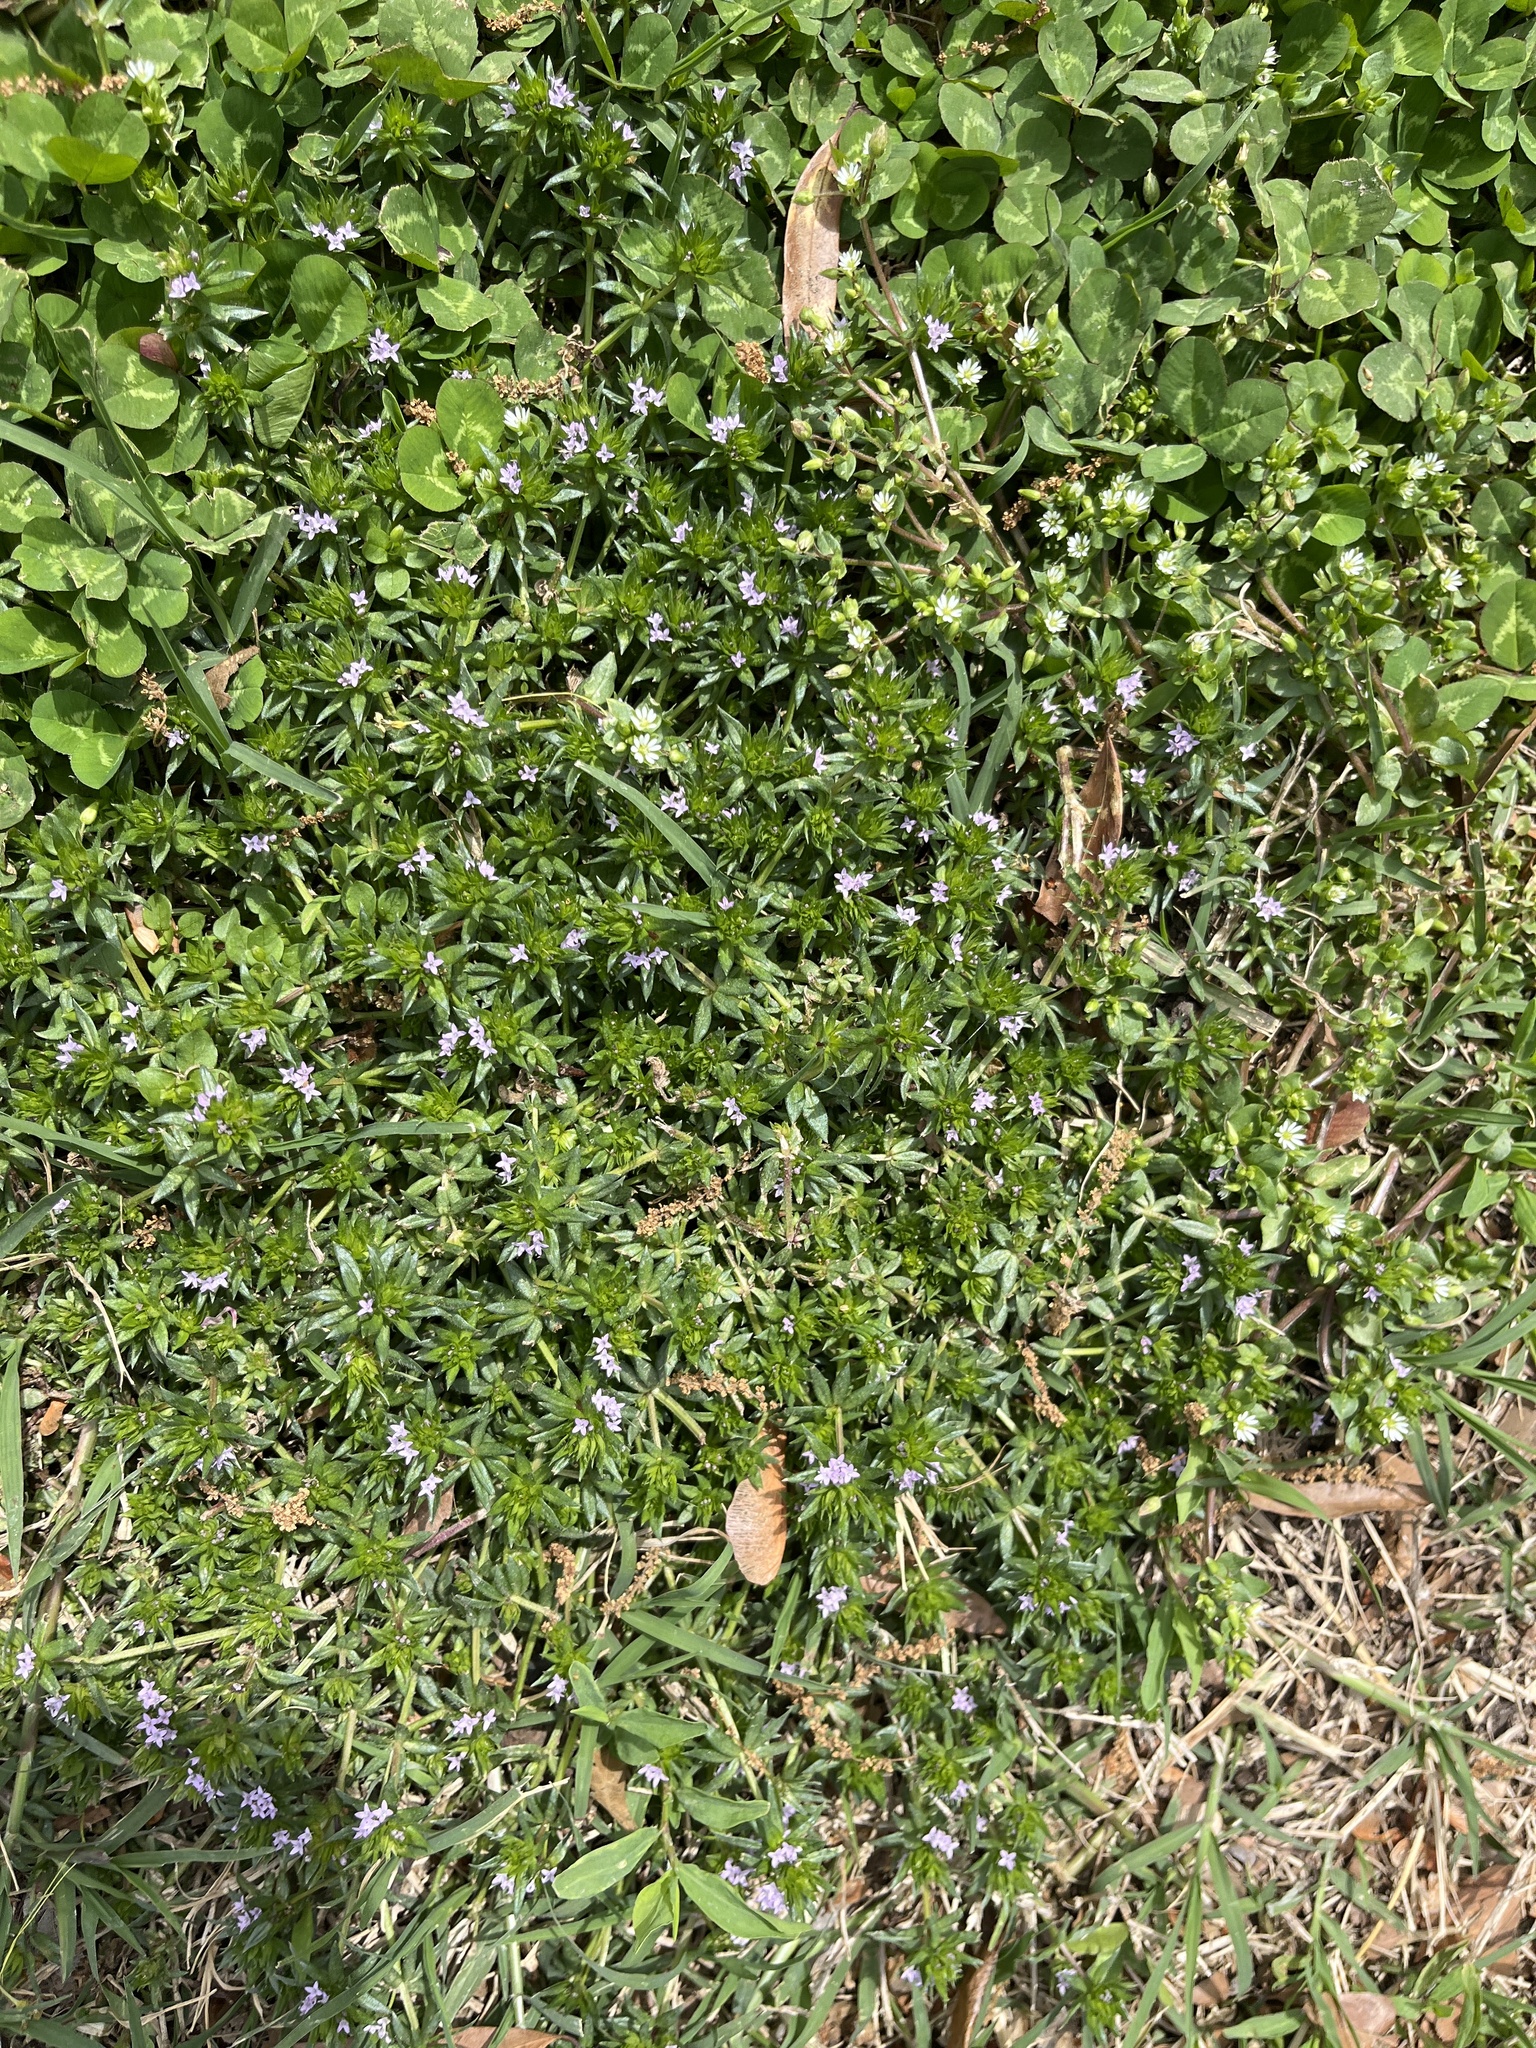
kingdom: Plantae
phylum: Tracheophyta
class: Magnoliopsida
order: Gentianales
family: Rubiaceae
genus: Sherardia
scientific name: Sherardia arvensis
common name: Field madder
